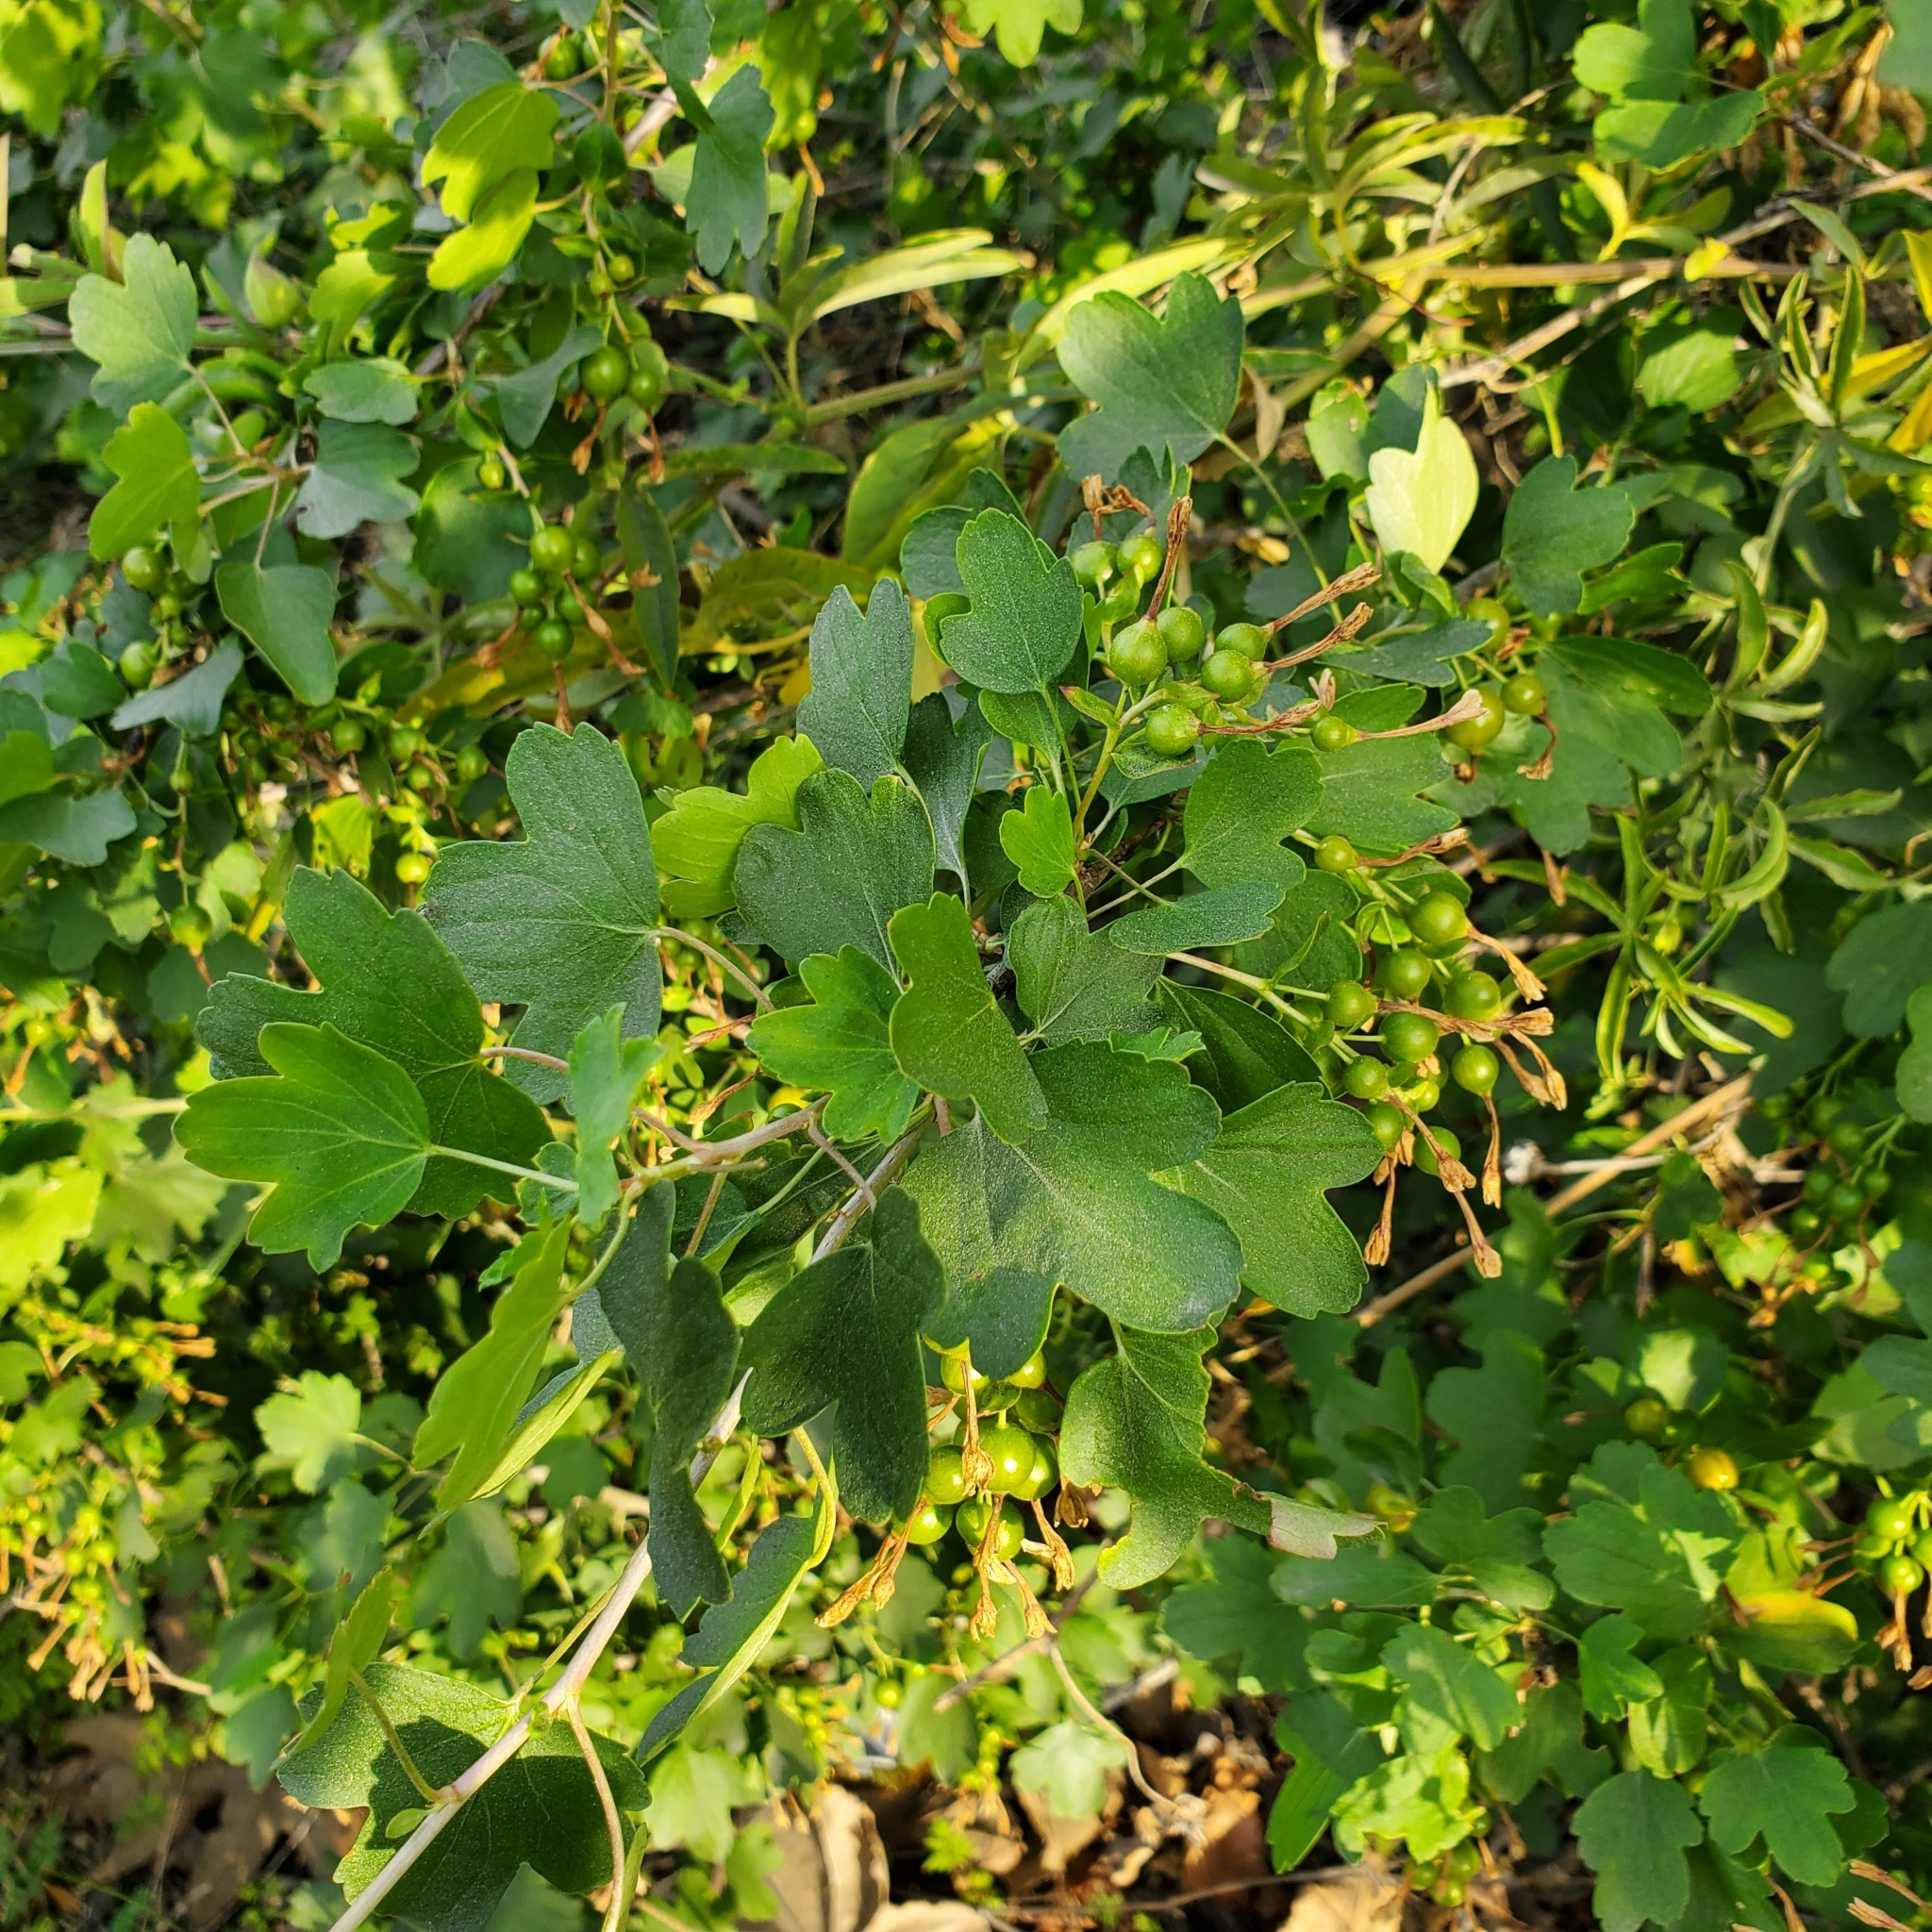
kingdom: Plantae
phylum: Tracheophyta
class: Magnoliopsida
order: Saxifragales
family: Grossulariaceae
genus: Ribes
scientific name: Ribes aureum
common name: Golden currant
